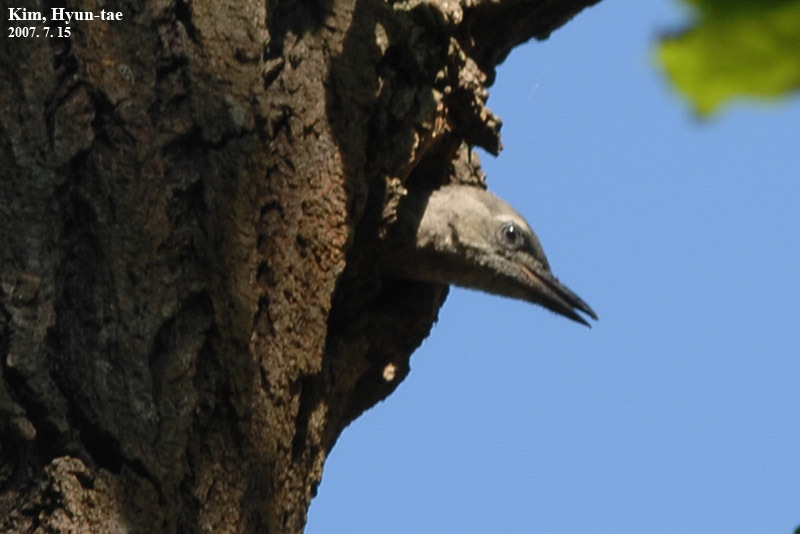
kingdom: Animalia
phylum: Chordata
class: Aves
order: Piciformes
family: Picidae
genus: Picus
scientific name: Picus canus
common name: Grey-headed woodpecker
